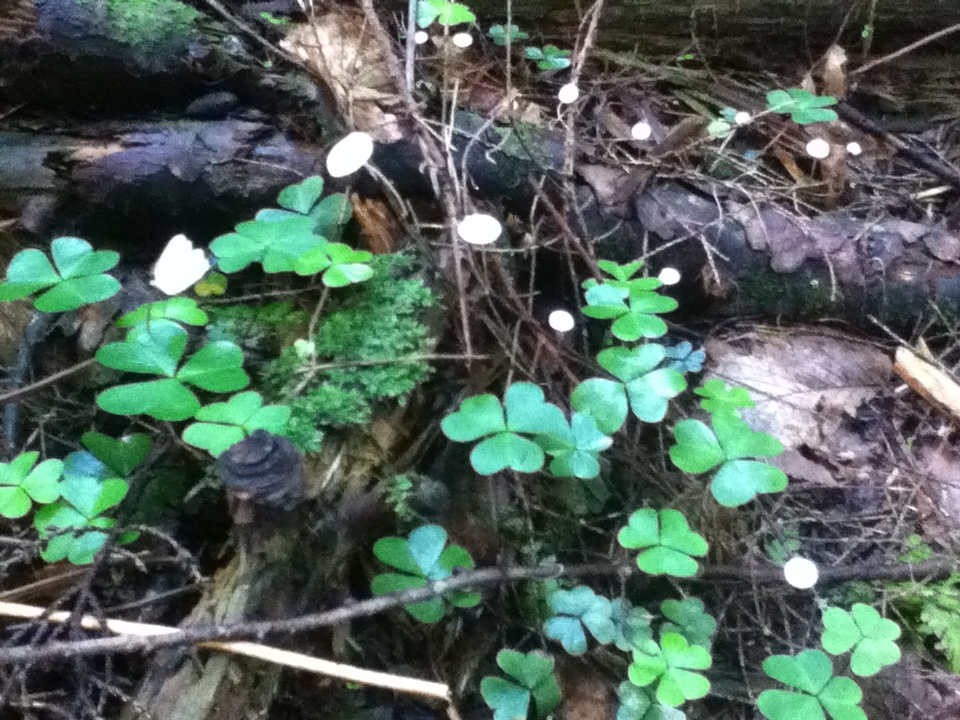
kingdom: Plantae
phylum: Tracheophyta
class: Magnoliopsida
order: Oxalidales
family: Oxalidaceae
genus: Oxalis
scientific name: Oxalis montana
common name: American wood-sorrel
